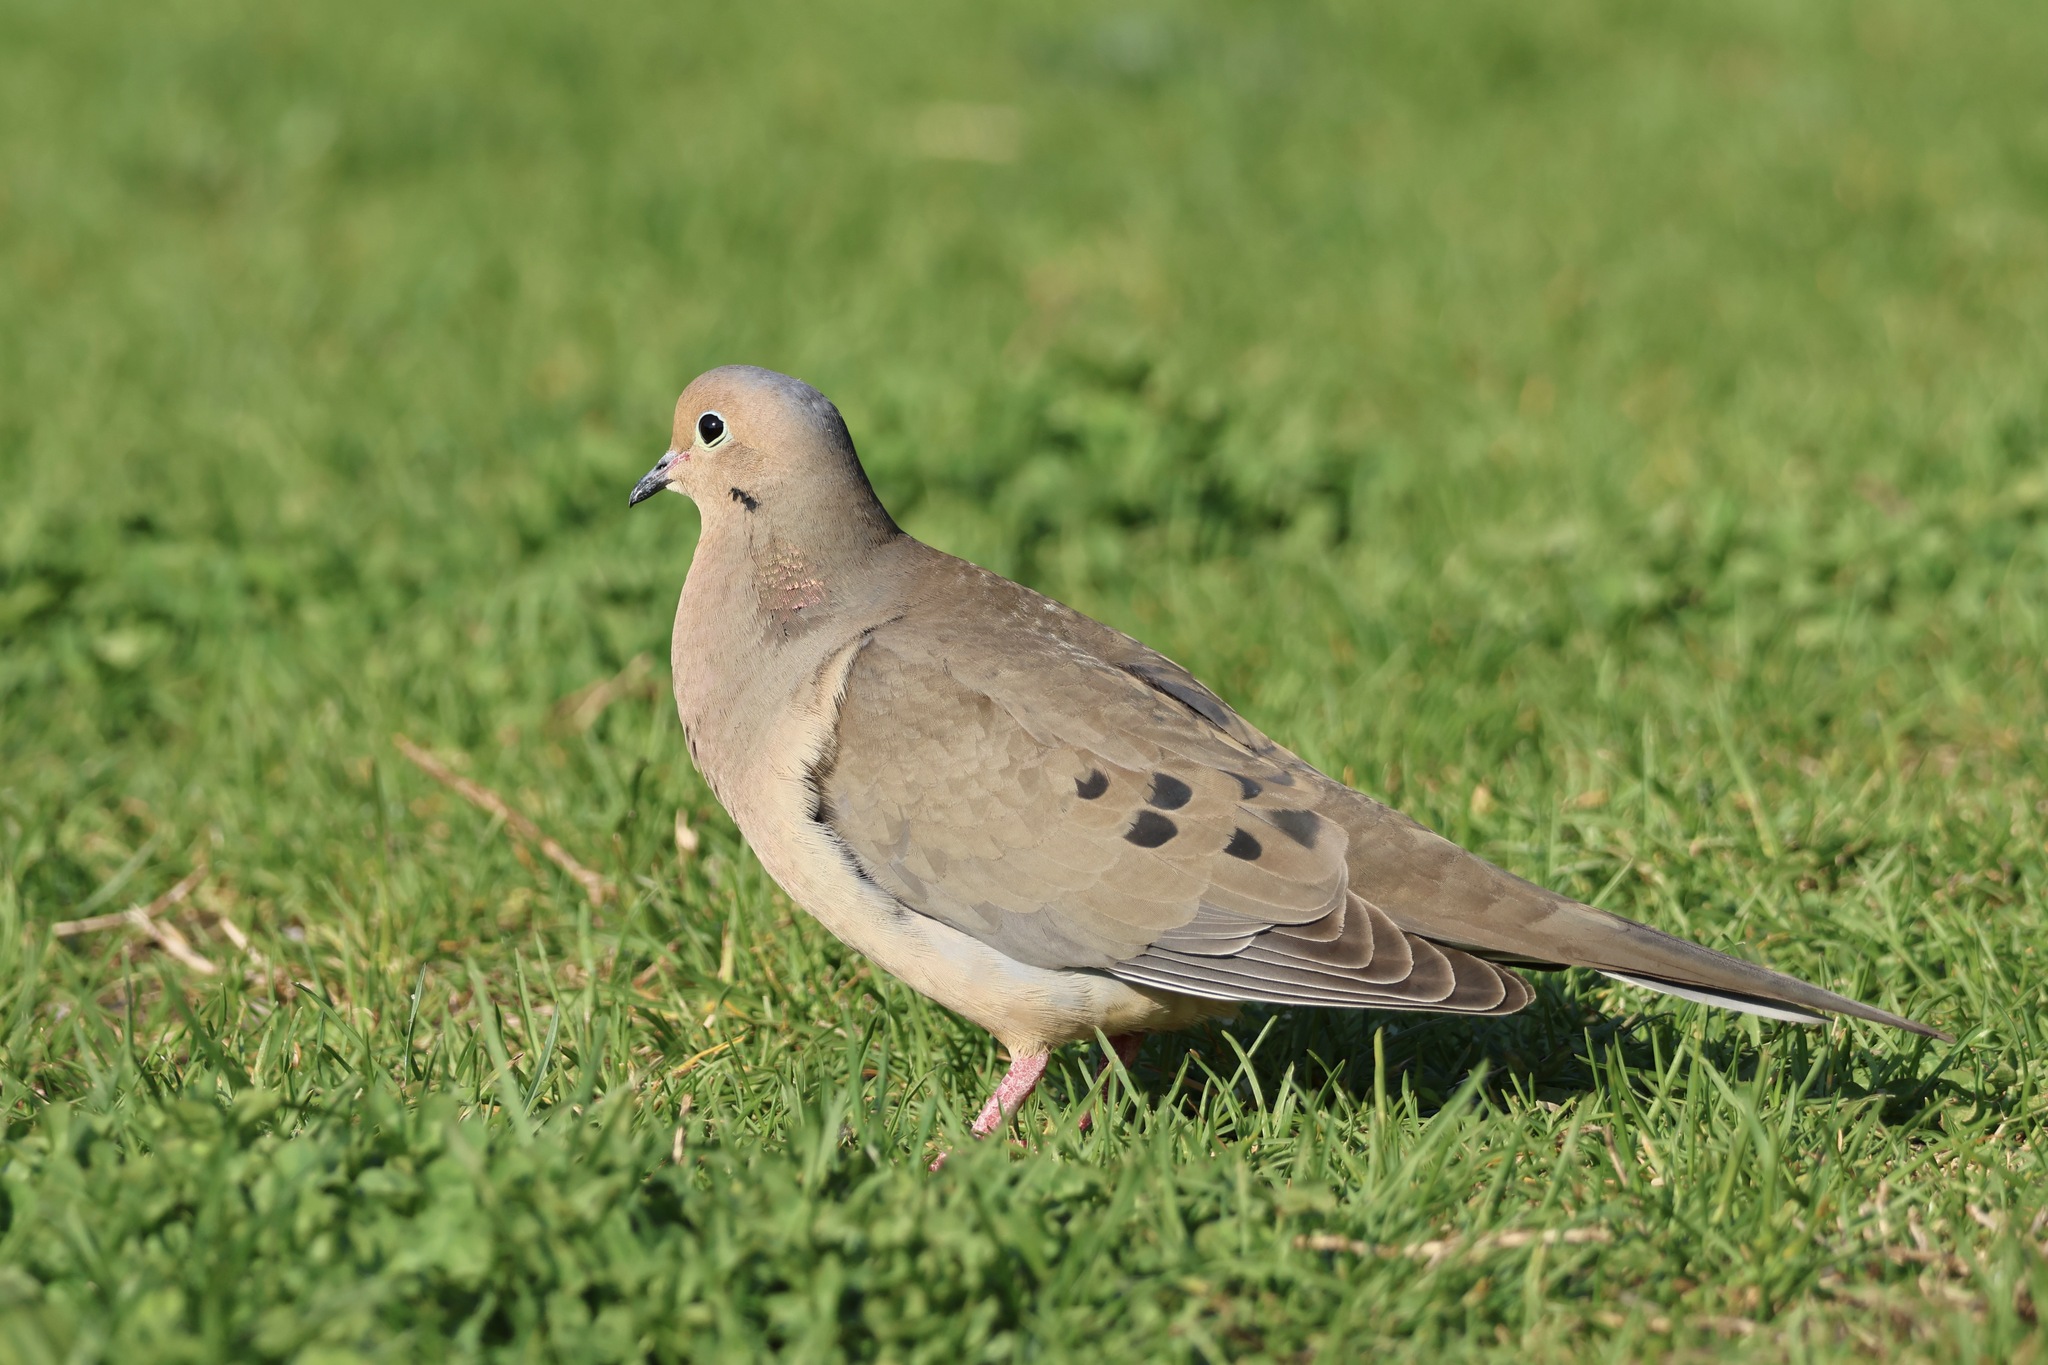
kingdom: Animalia
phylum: Chordata
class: Aves
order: Columbiformes
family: Columbidae
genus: Zenaida
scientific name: Zenaida macroura
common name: Mourning dove
